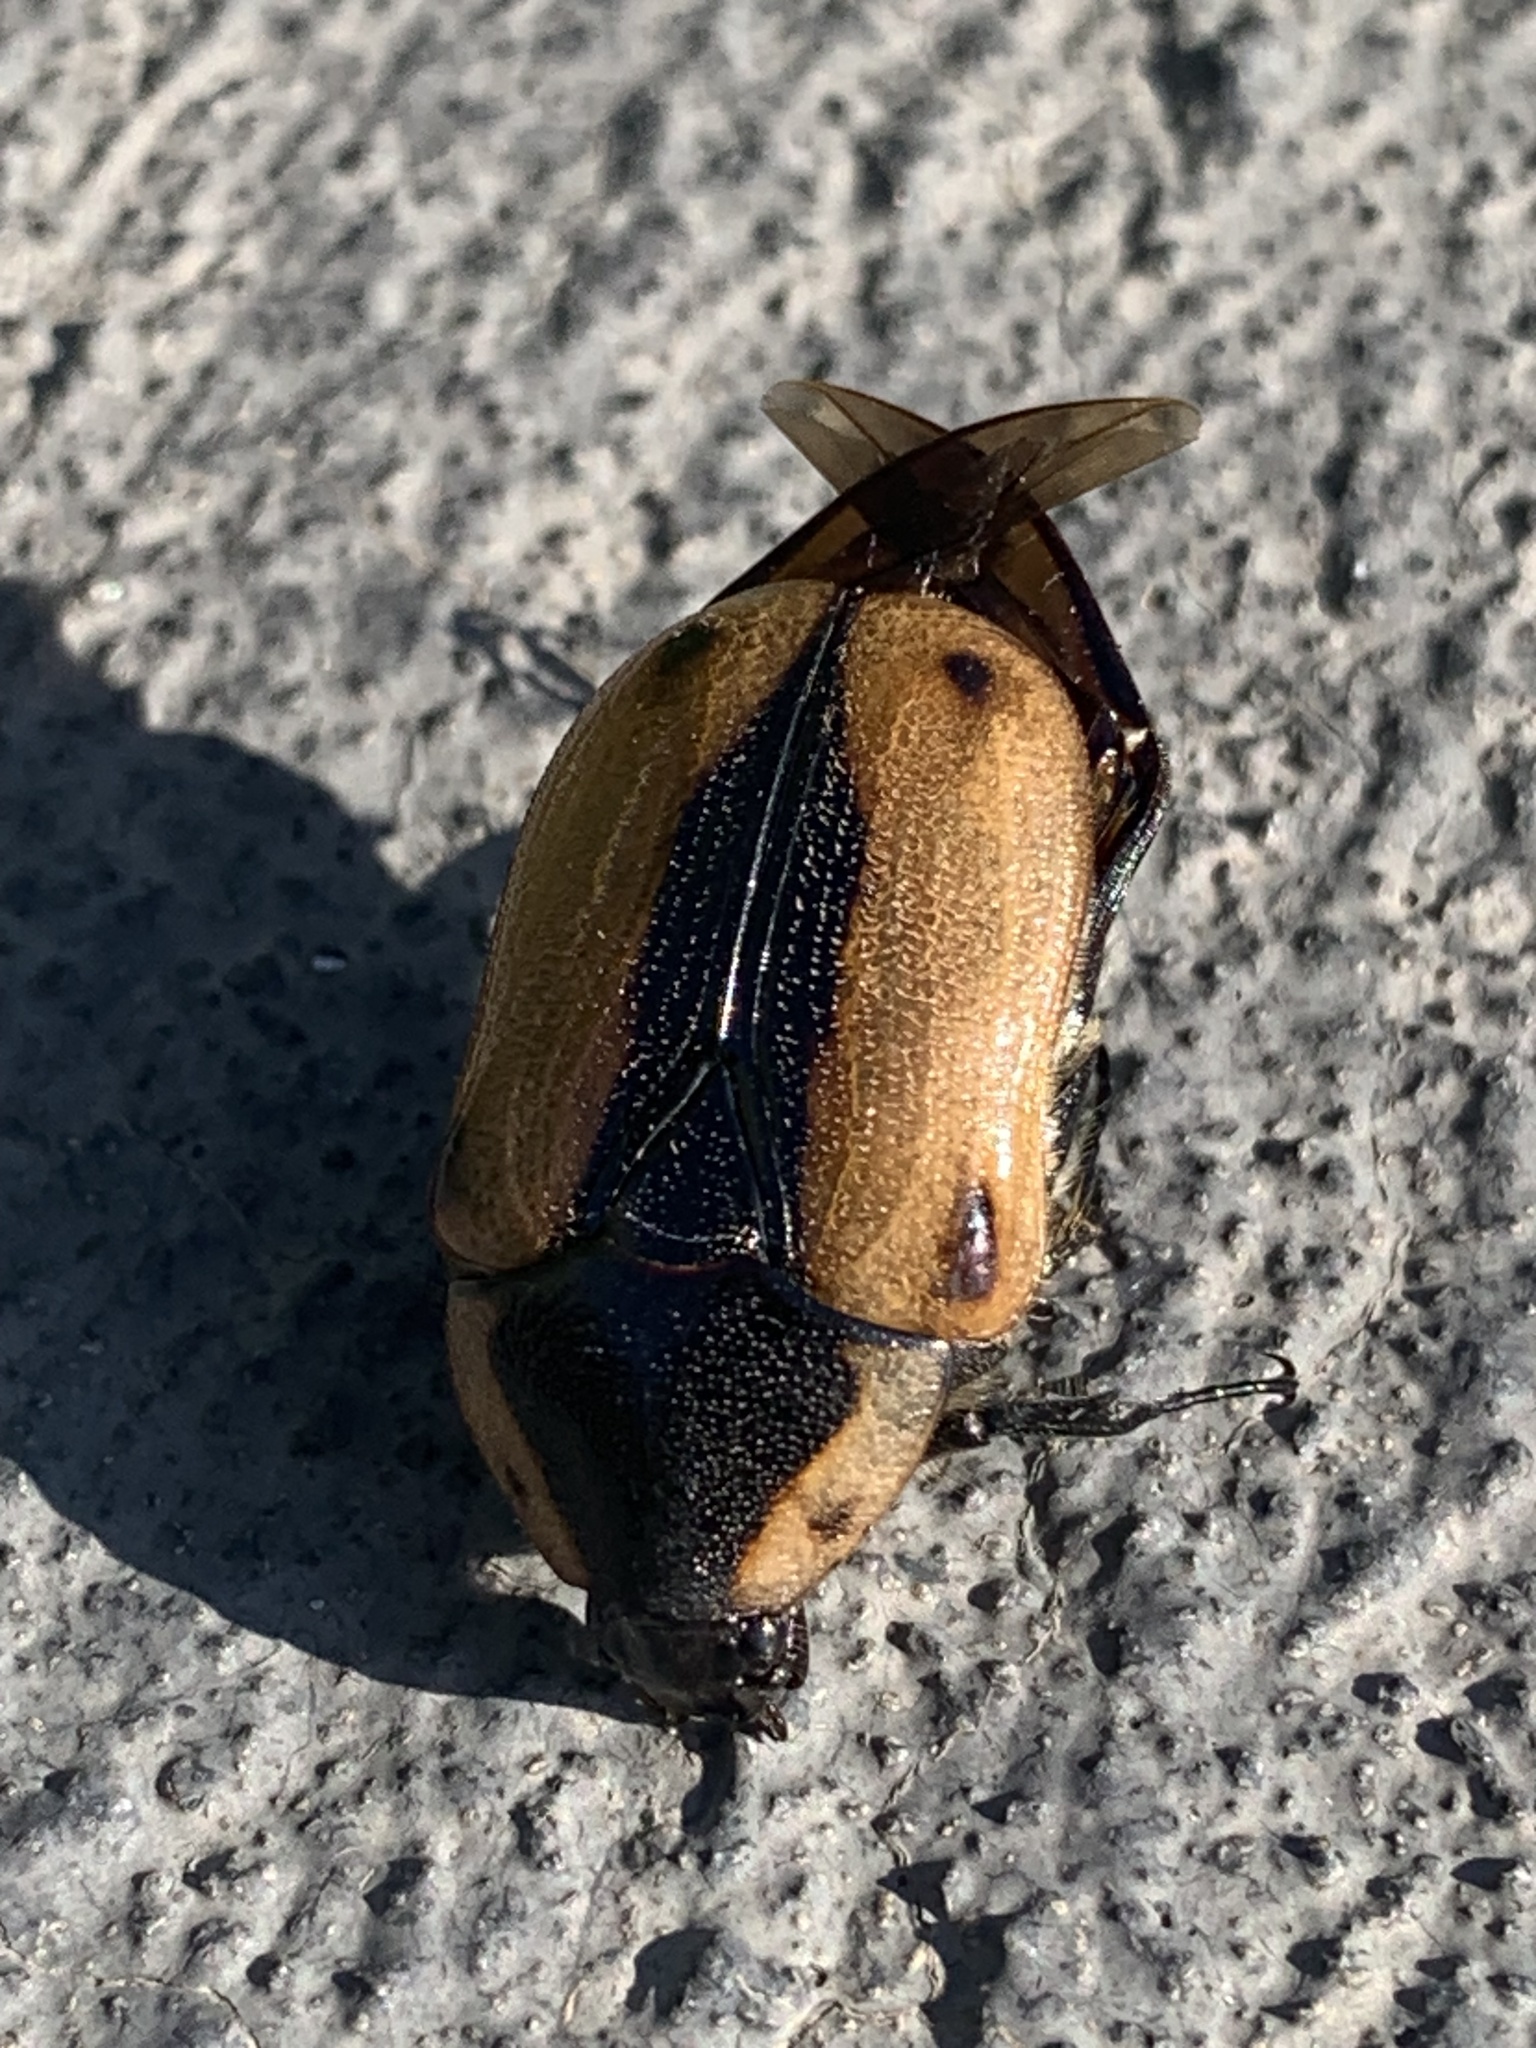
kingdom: Animalia
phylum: Arthropoda
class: Insecta
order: Coleoptera
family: Scarabaeidae
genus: Chondropyga
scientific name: Chondropyga dorsalis
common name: Cowboy beetle
